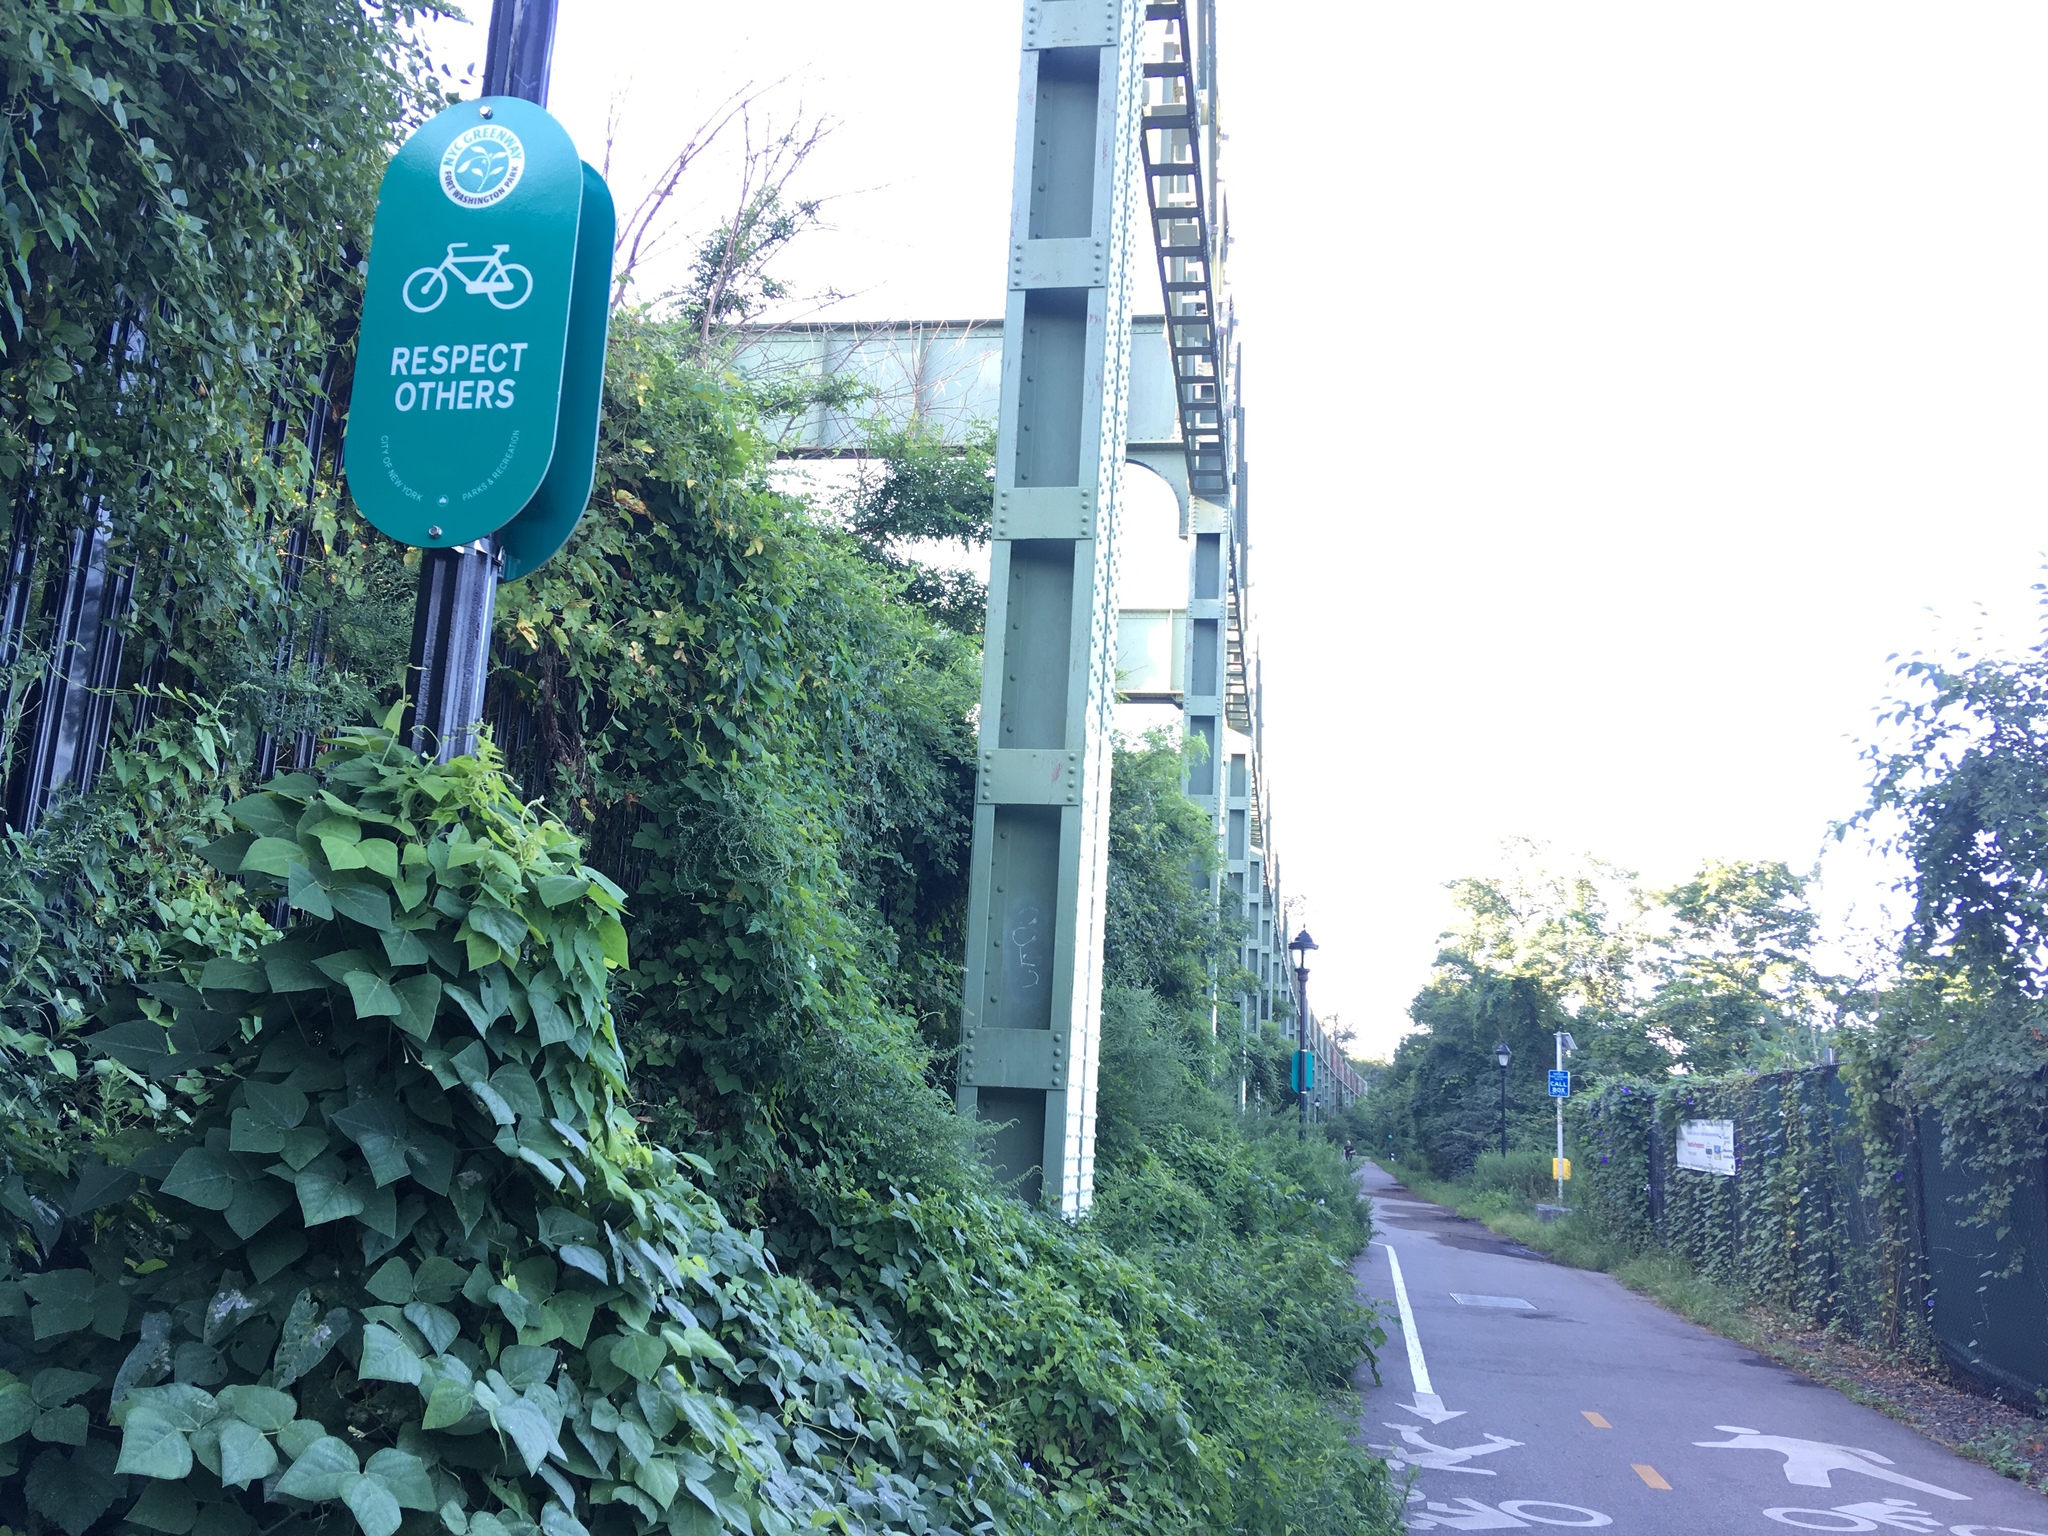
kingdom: Plantae
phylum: Tracheophyta
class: Magnoliopsida
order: Fabales
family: Fabaceae
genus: Amphicarpaea
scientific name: Amphicarpaea bracteata
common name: American hog peanut
